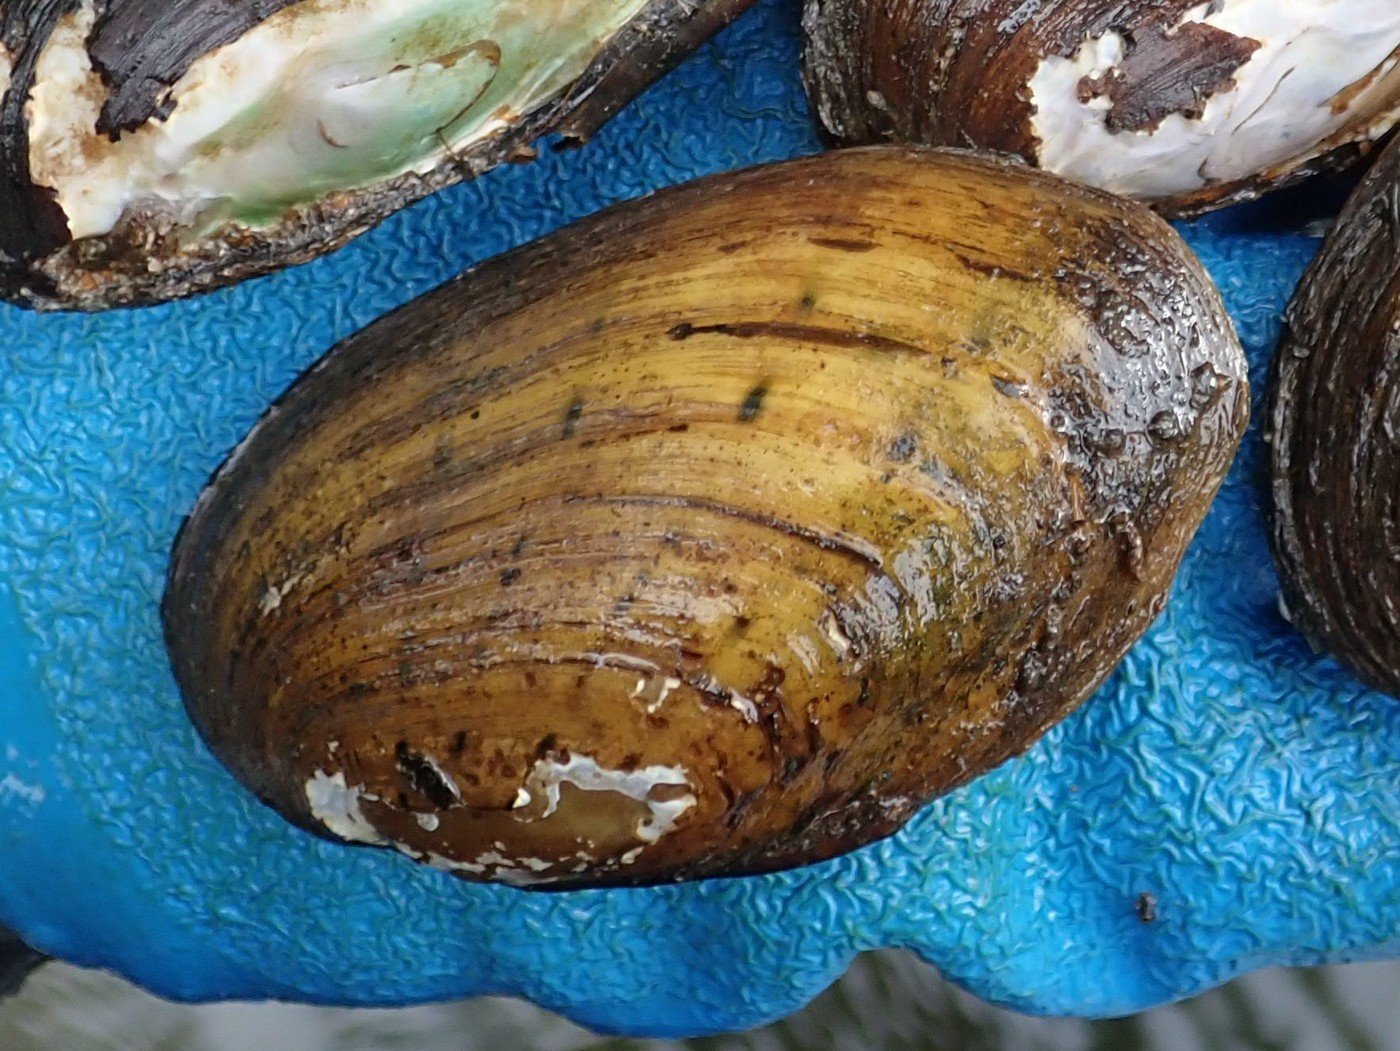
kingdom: Animalia
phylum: Mollusca
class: Bivalvia
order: Unionida
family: Unionidae
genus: Cambarunio
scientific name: Cambarunio taeniatus
